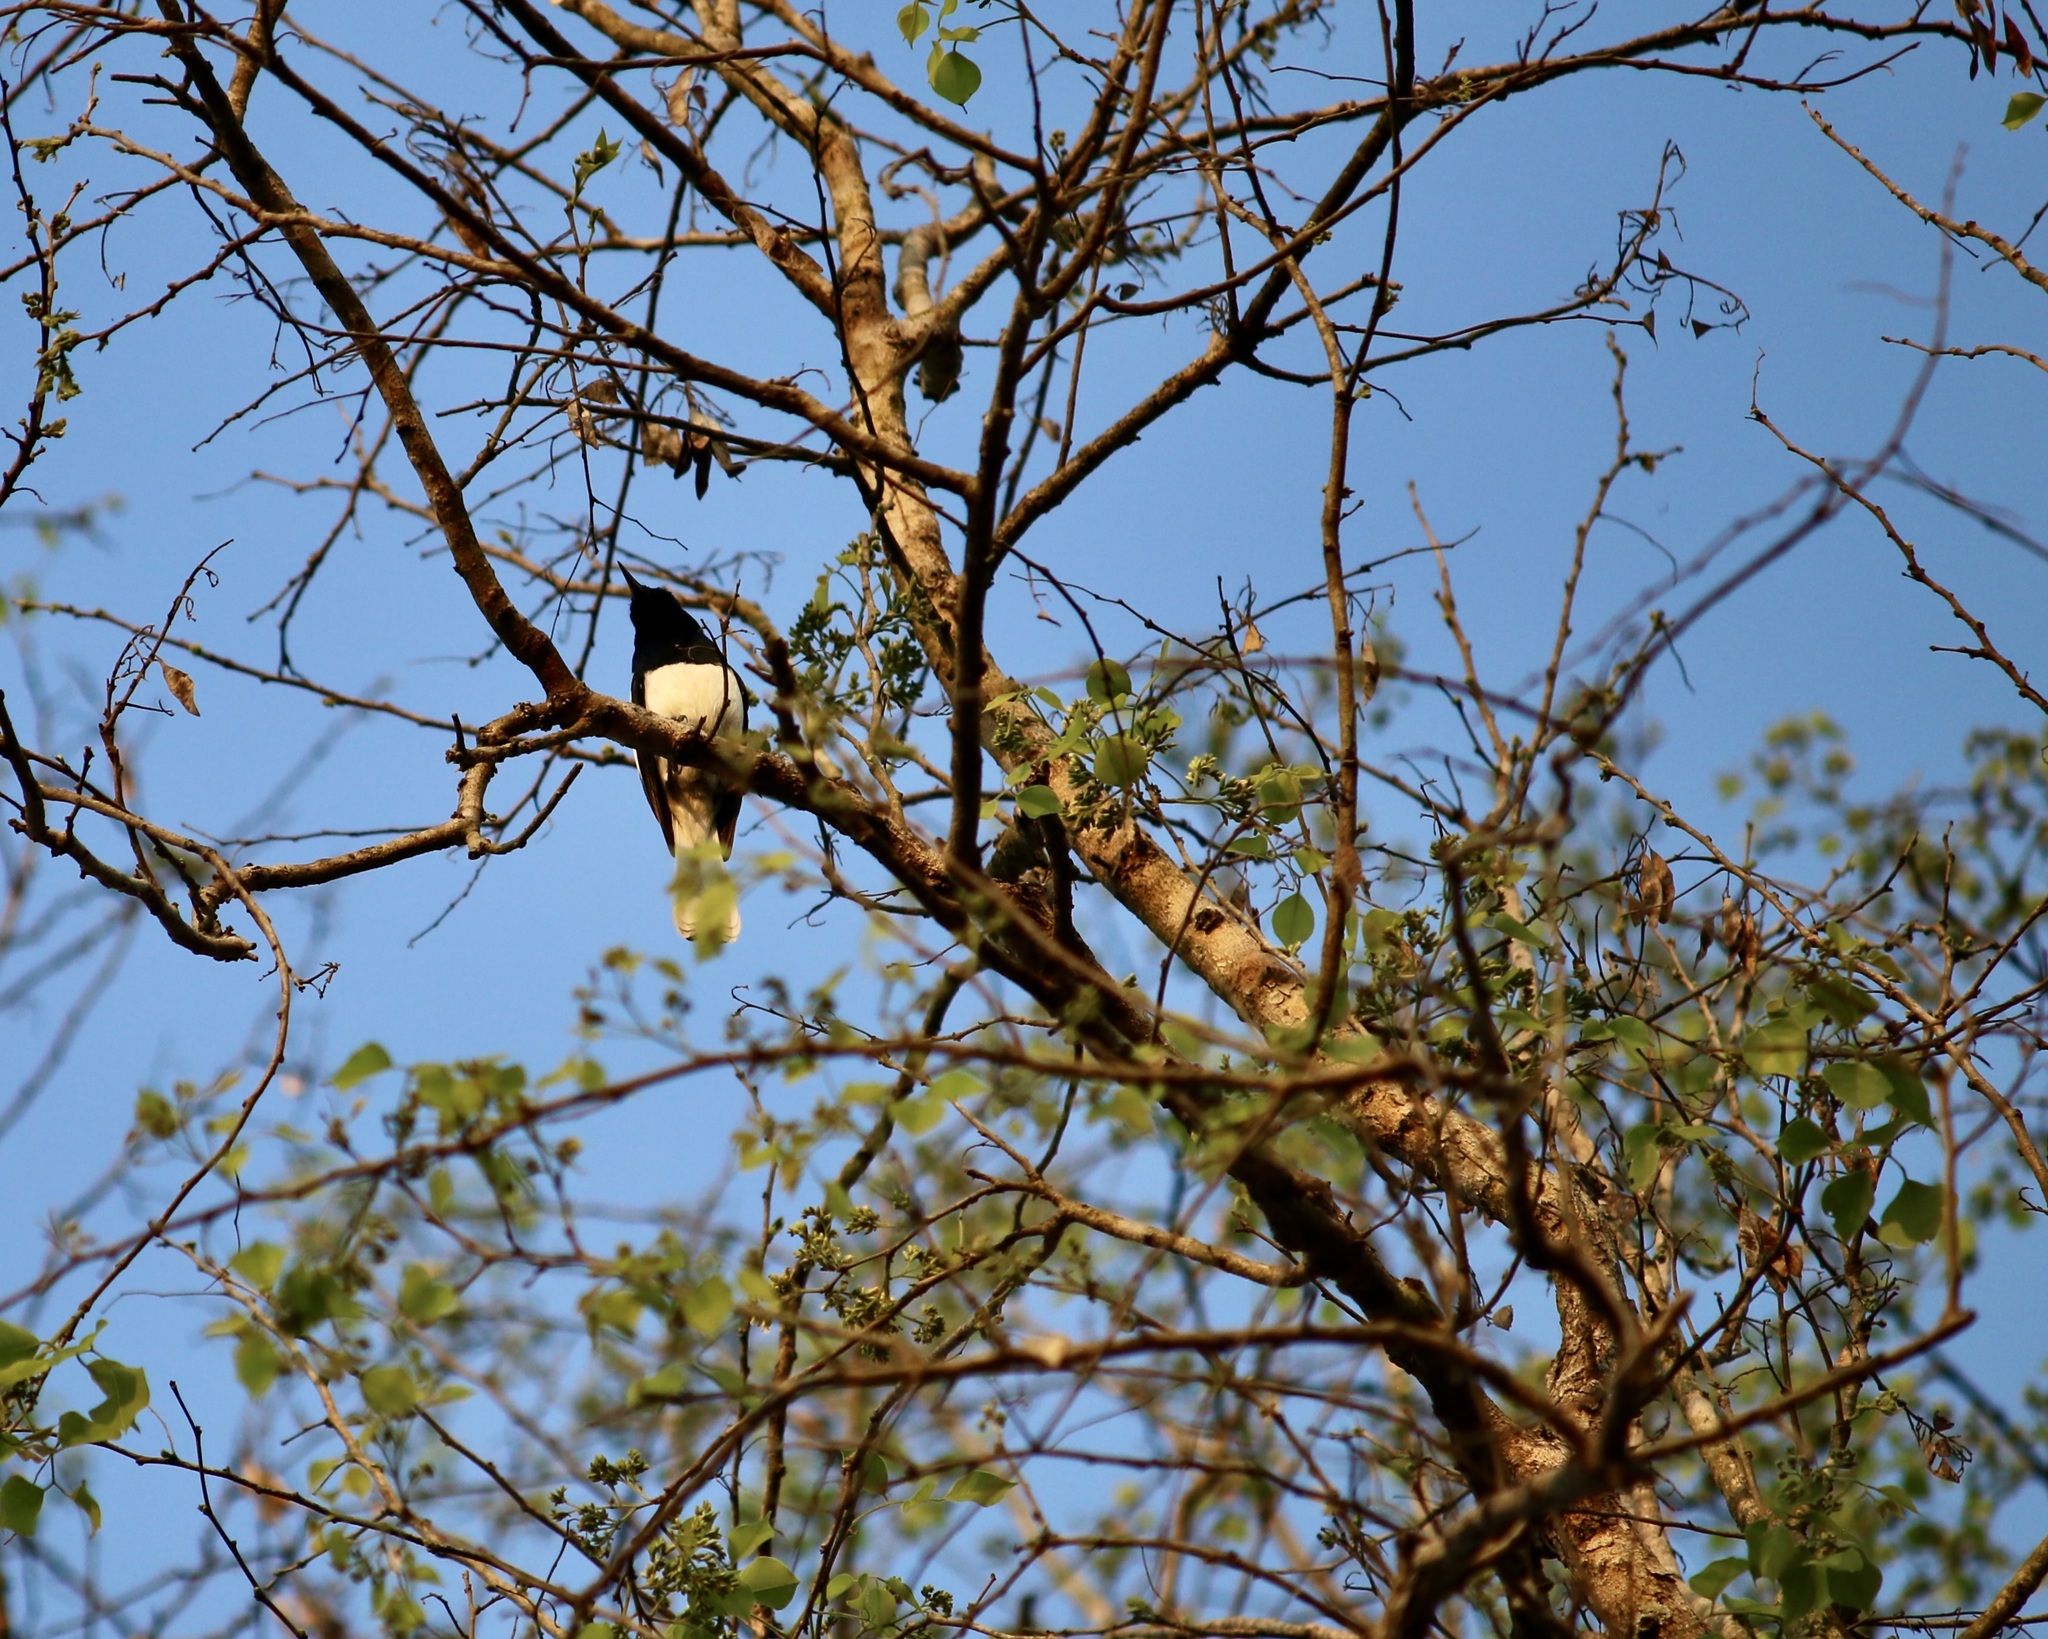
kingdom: Animalia
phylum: Chordata
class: Aves
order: Passeriformes
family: Muscicapidae
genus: Copsychus
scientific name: Copsychus saularis
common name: Oriental magpie-robin
